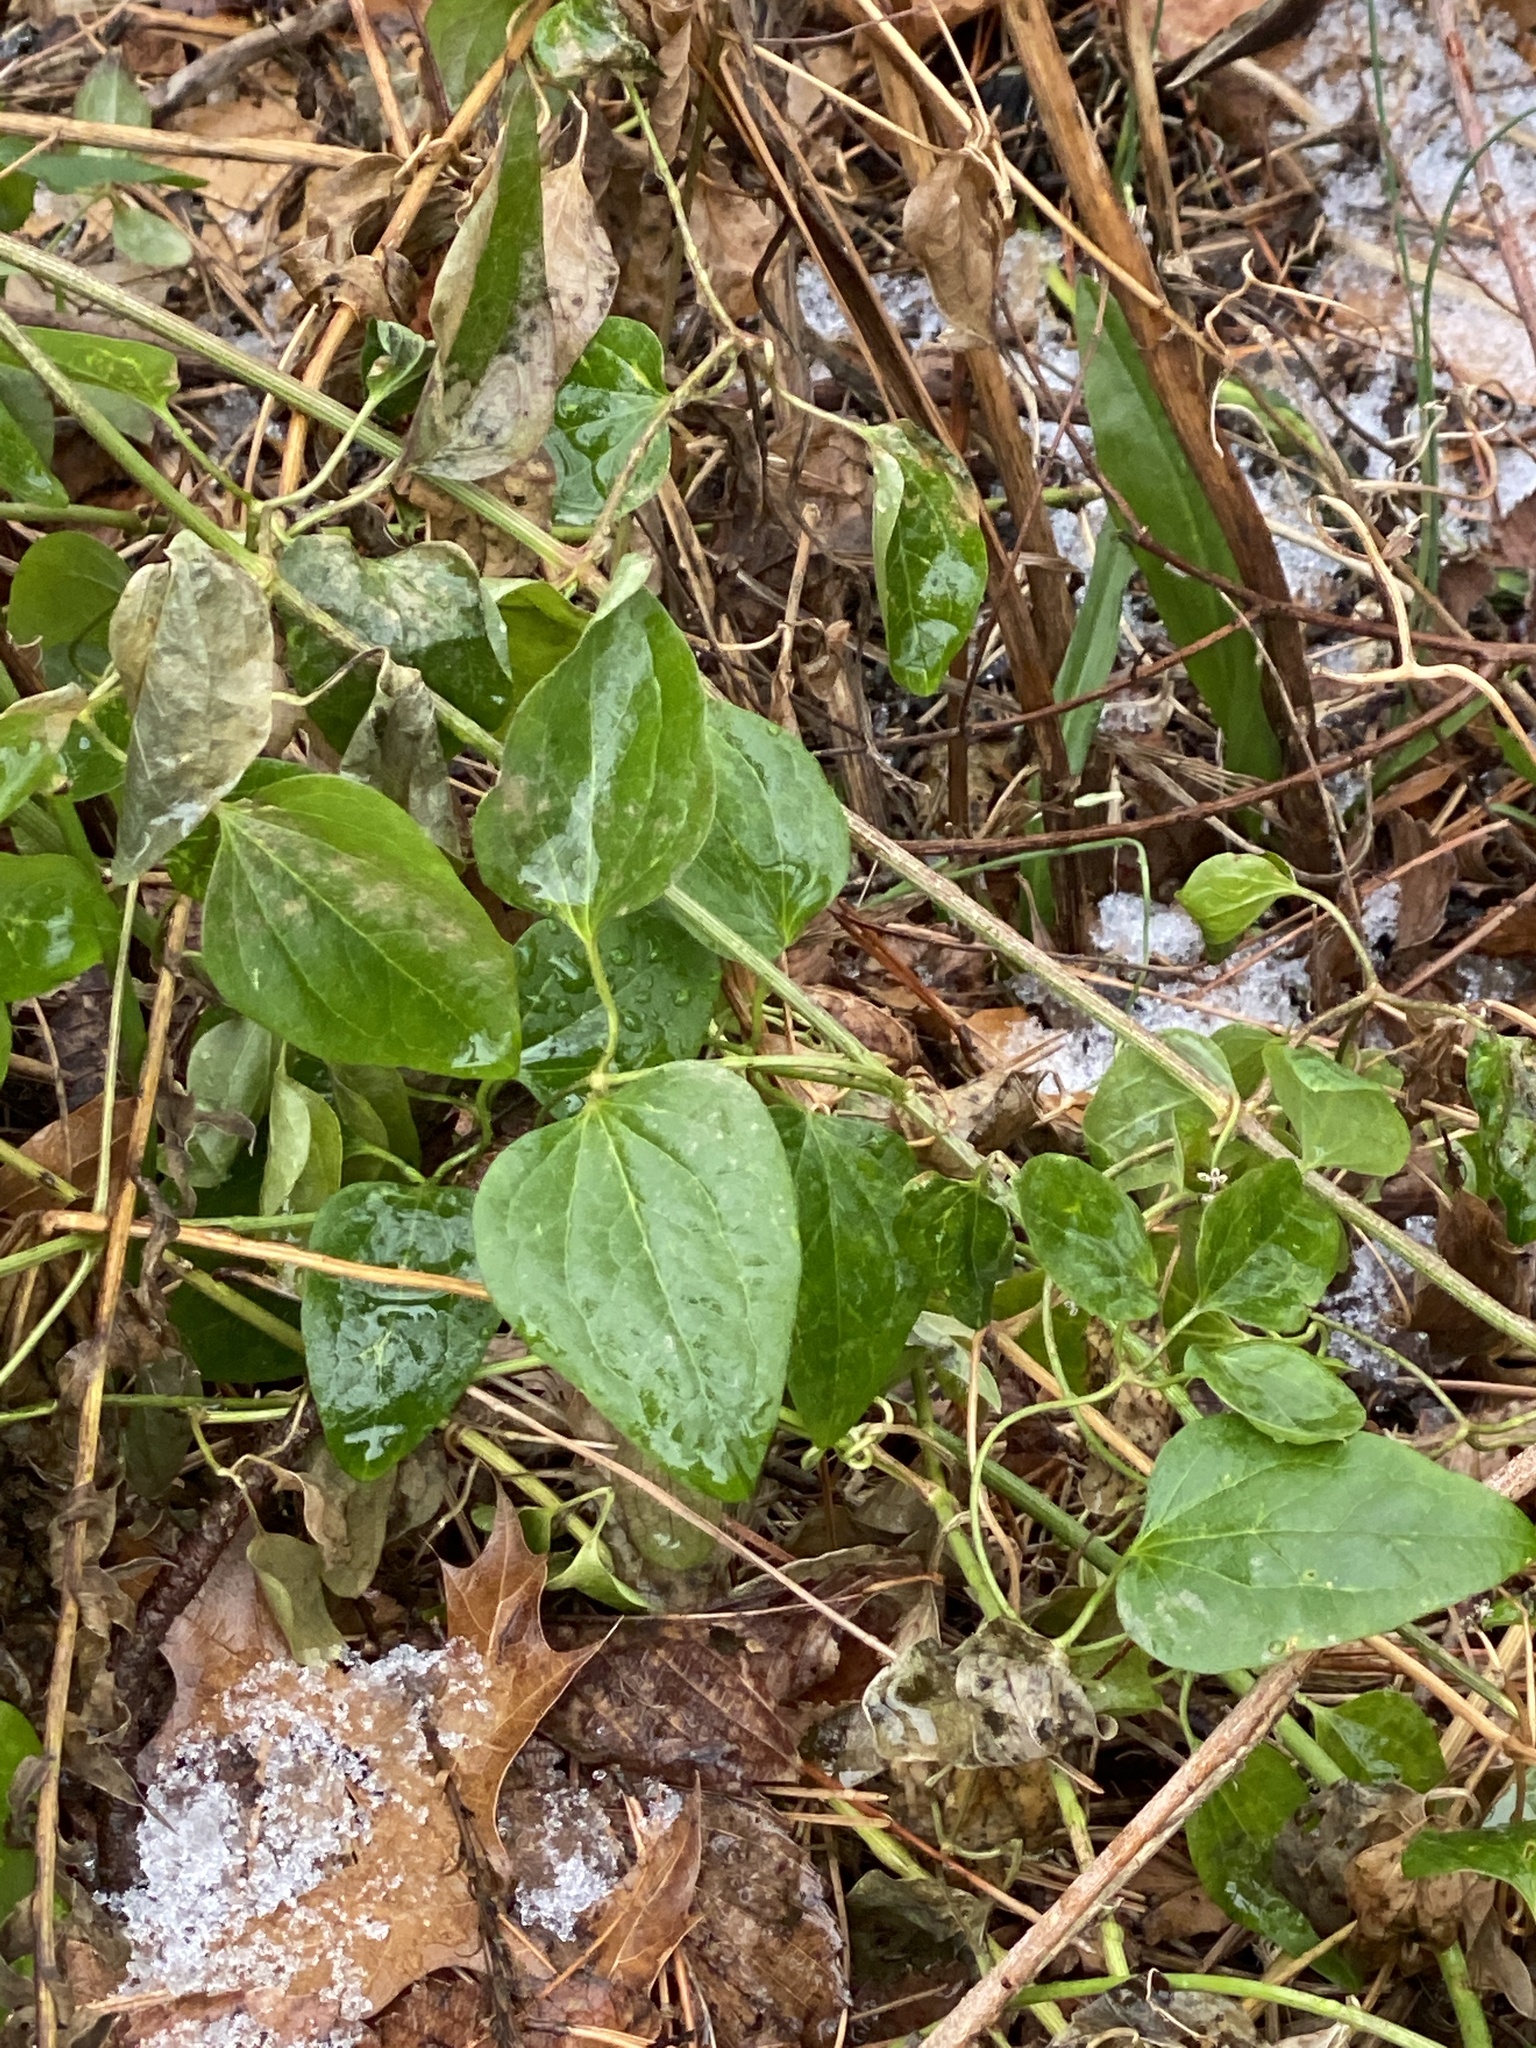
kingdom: Plantae
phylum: Tracheophyta
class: Magnoliopsida
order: Ranunculales
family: Ranunculaceae
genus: Clematis
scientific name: Clematis terniflora
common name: Sweet autumn clematis
